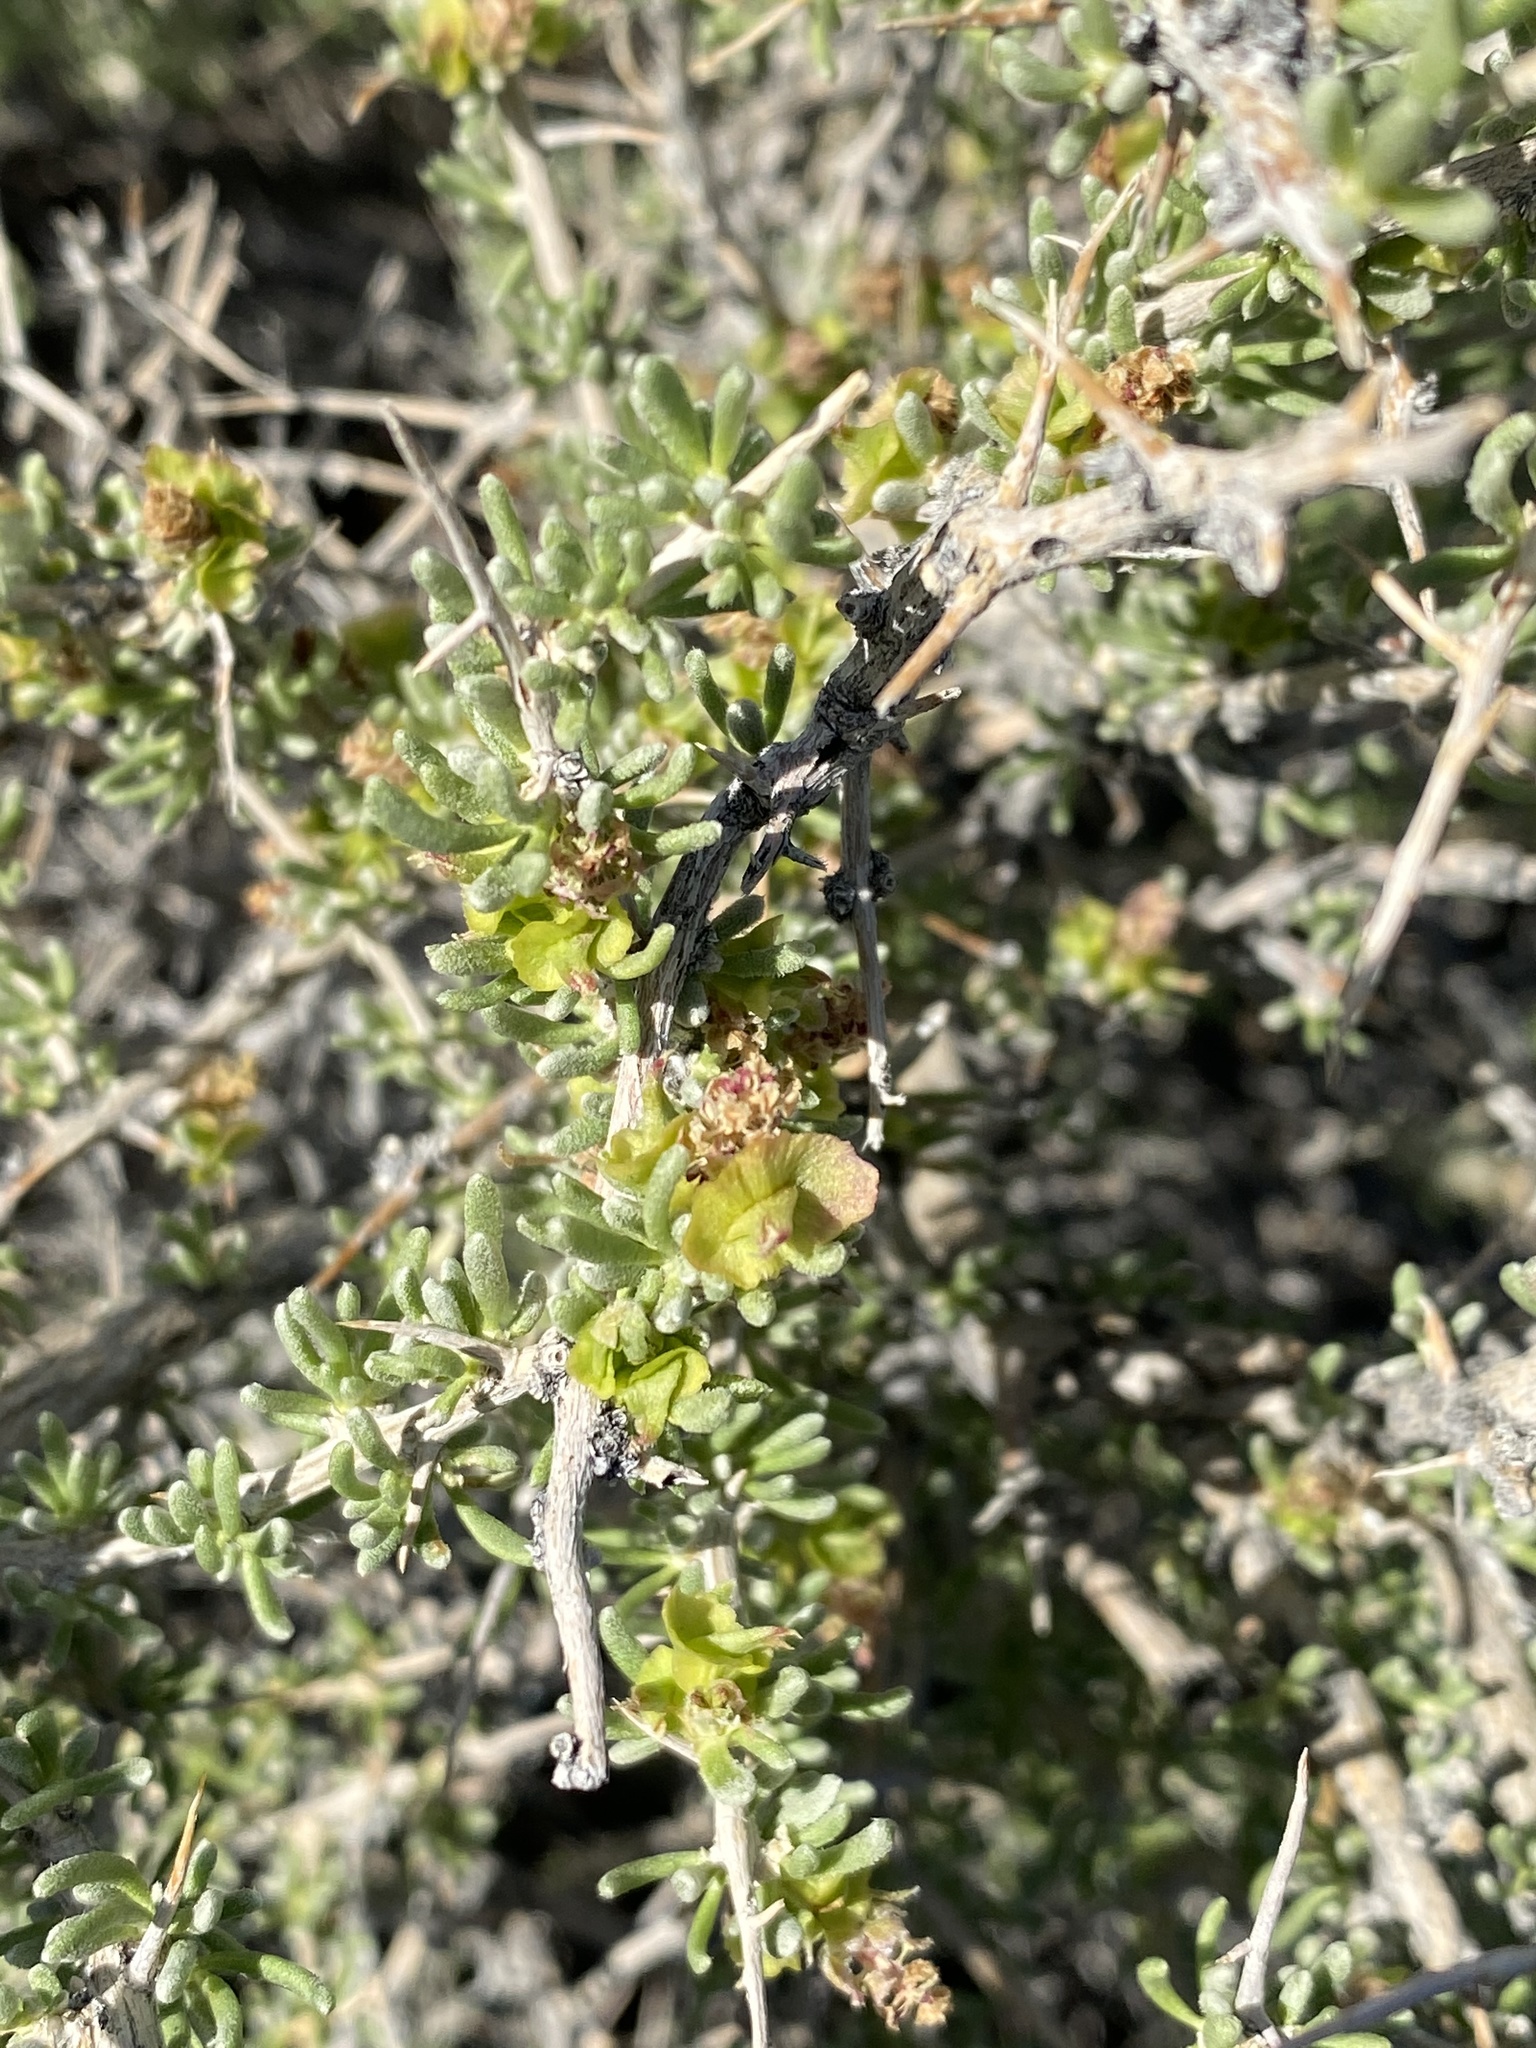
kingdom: Plantae
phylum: Tracheophyta
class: Magnoliopsida
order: Caryophyllales
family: Sarcobataceae
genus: Sarcobatus
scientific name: Sarcobatus baileyi
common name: Bailey greasewood
